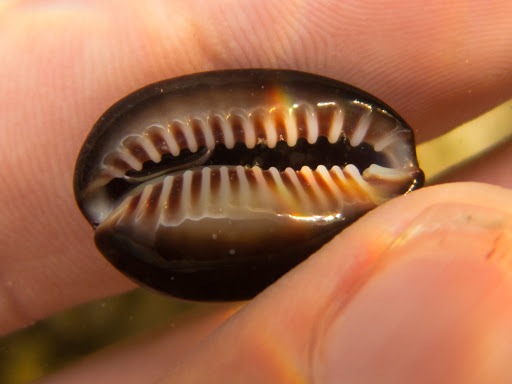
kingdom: Animalia
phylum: Mollusca
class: Gastropoda
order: Littorinimorpha
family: Cypraeidae
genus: Monetaria
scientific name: Monetaria caputserpentis
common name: Serpent's head cowrie
